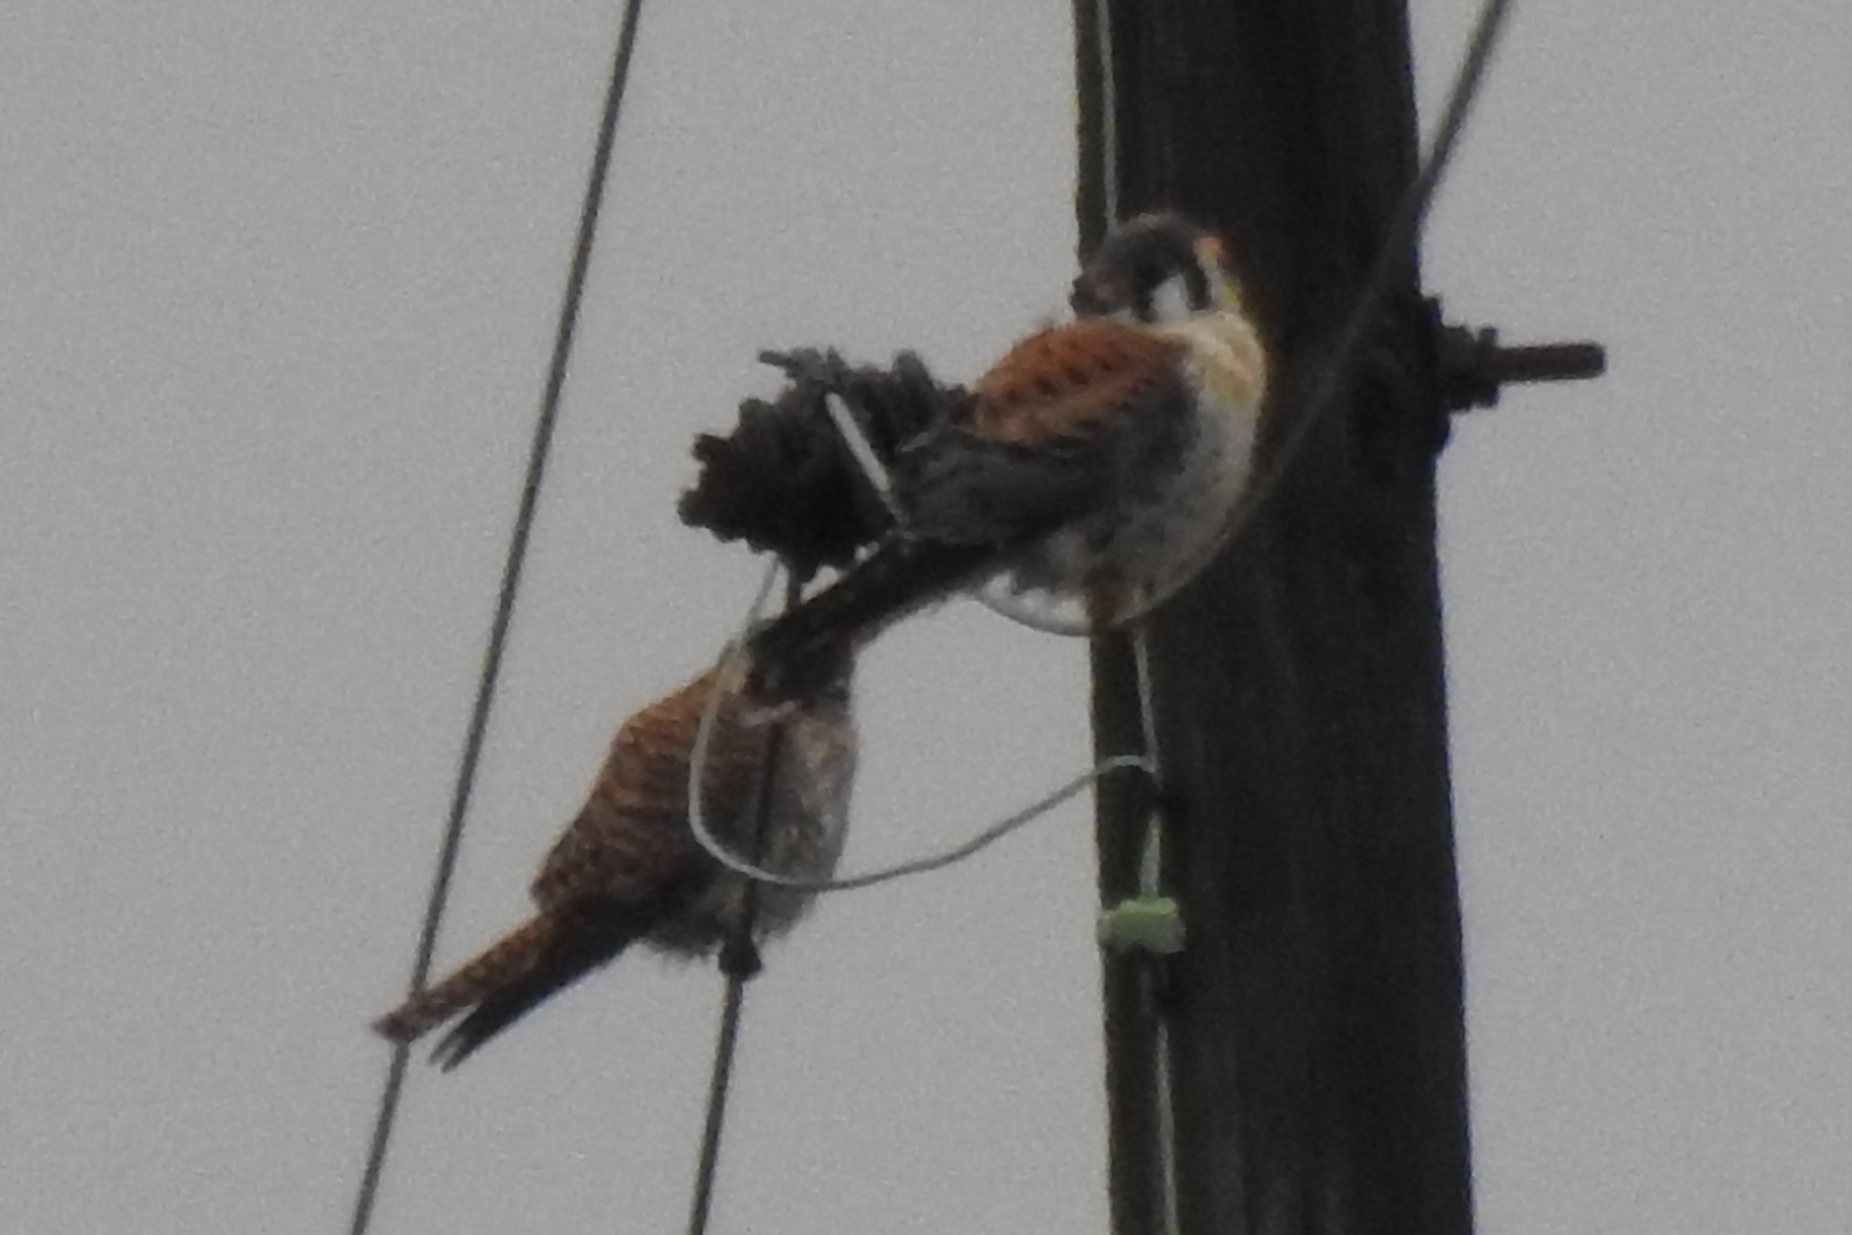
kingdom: Animalia
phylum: Chordata
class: Aves
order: Falconiformes
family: Falconidae
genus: Falco
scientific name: Falco sparverius
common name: American kestrel
